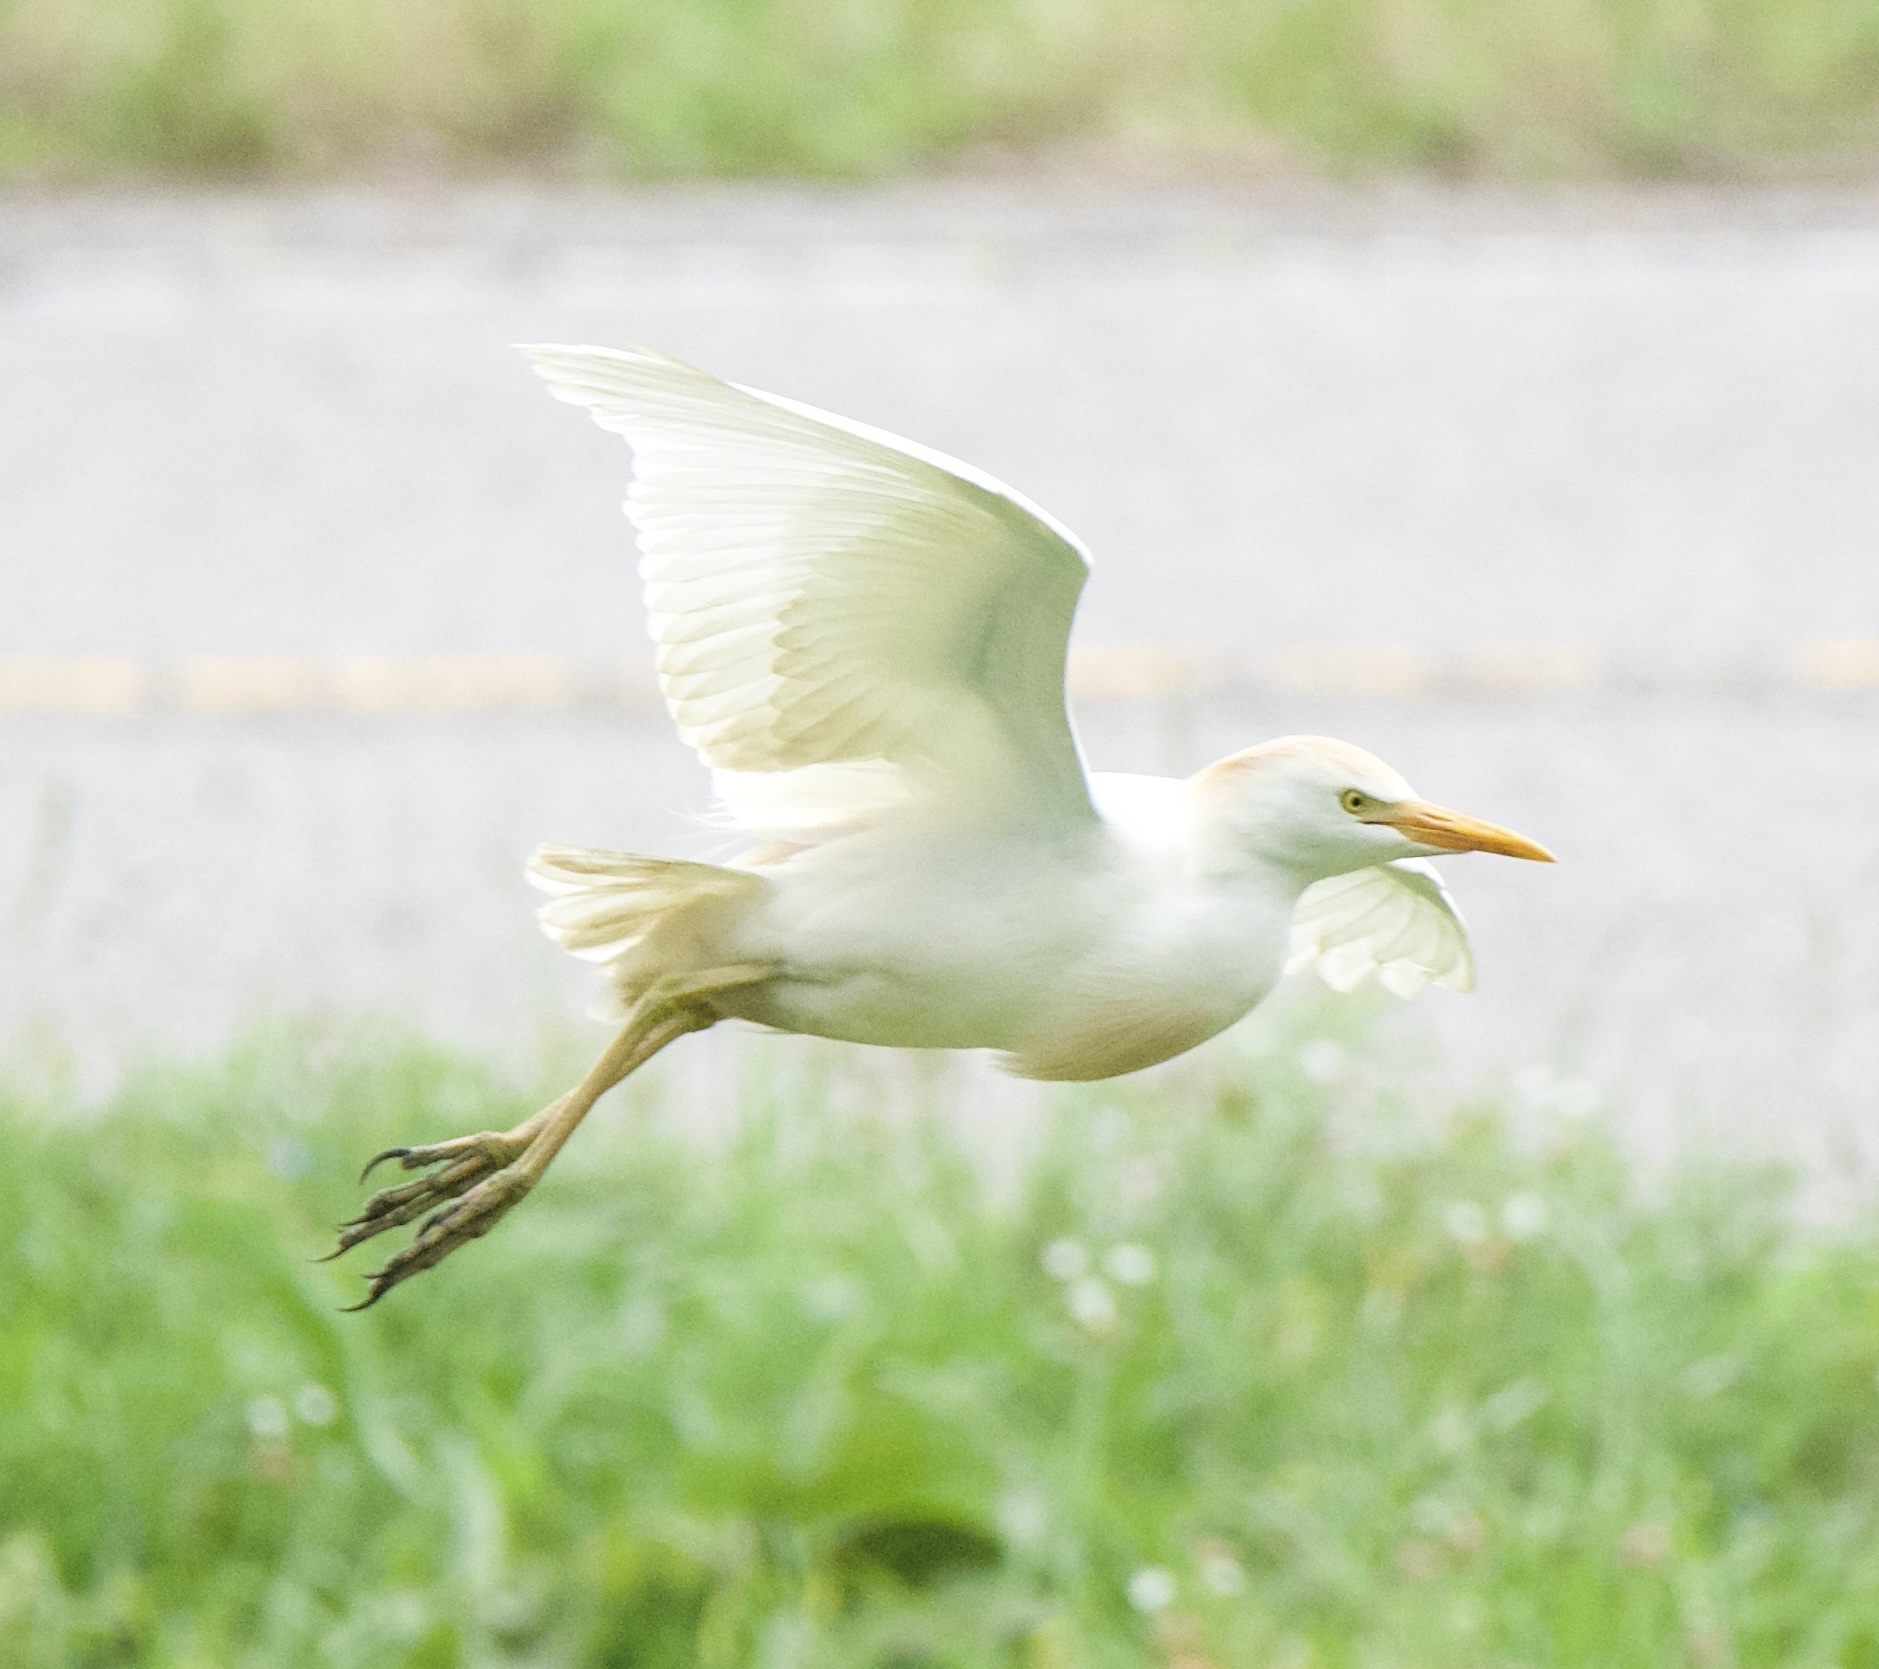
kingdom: Animalia
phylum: Chordata
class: Aves
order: Pelecaniformes
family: Ardeidae
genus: Bubulcus
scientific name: Bubulcus ibis
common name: Cattle egret
